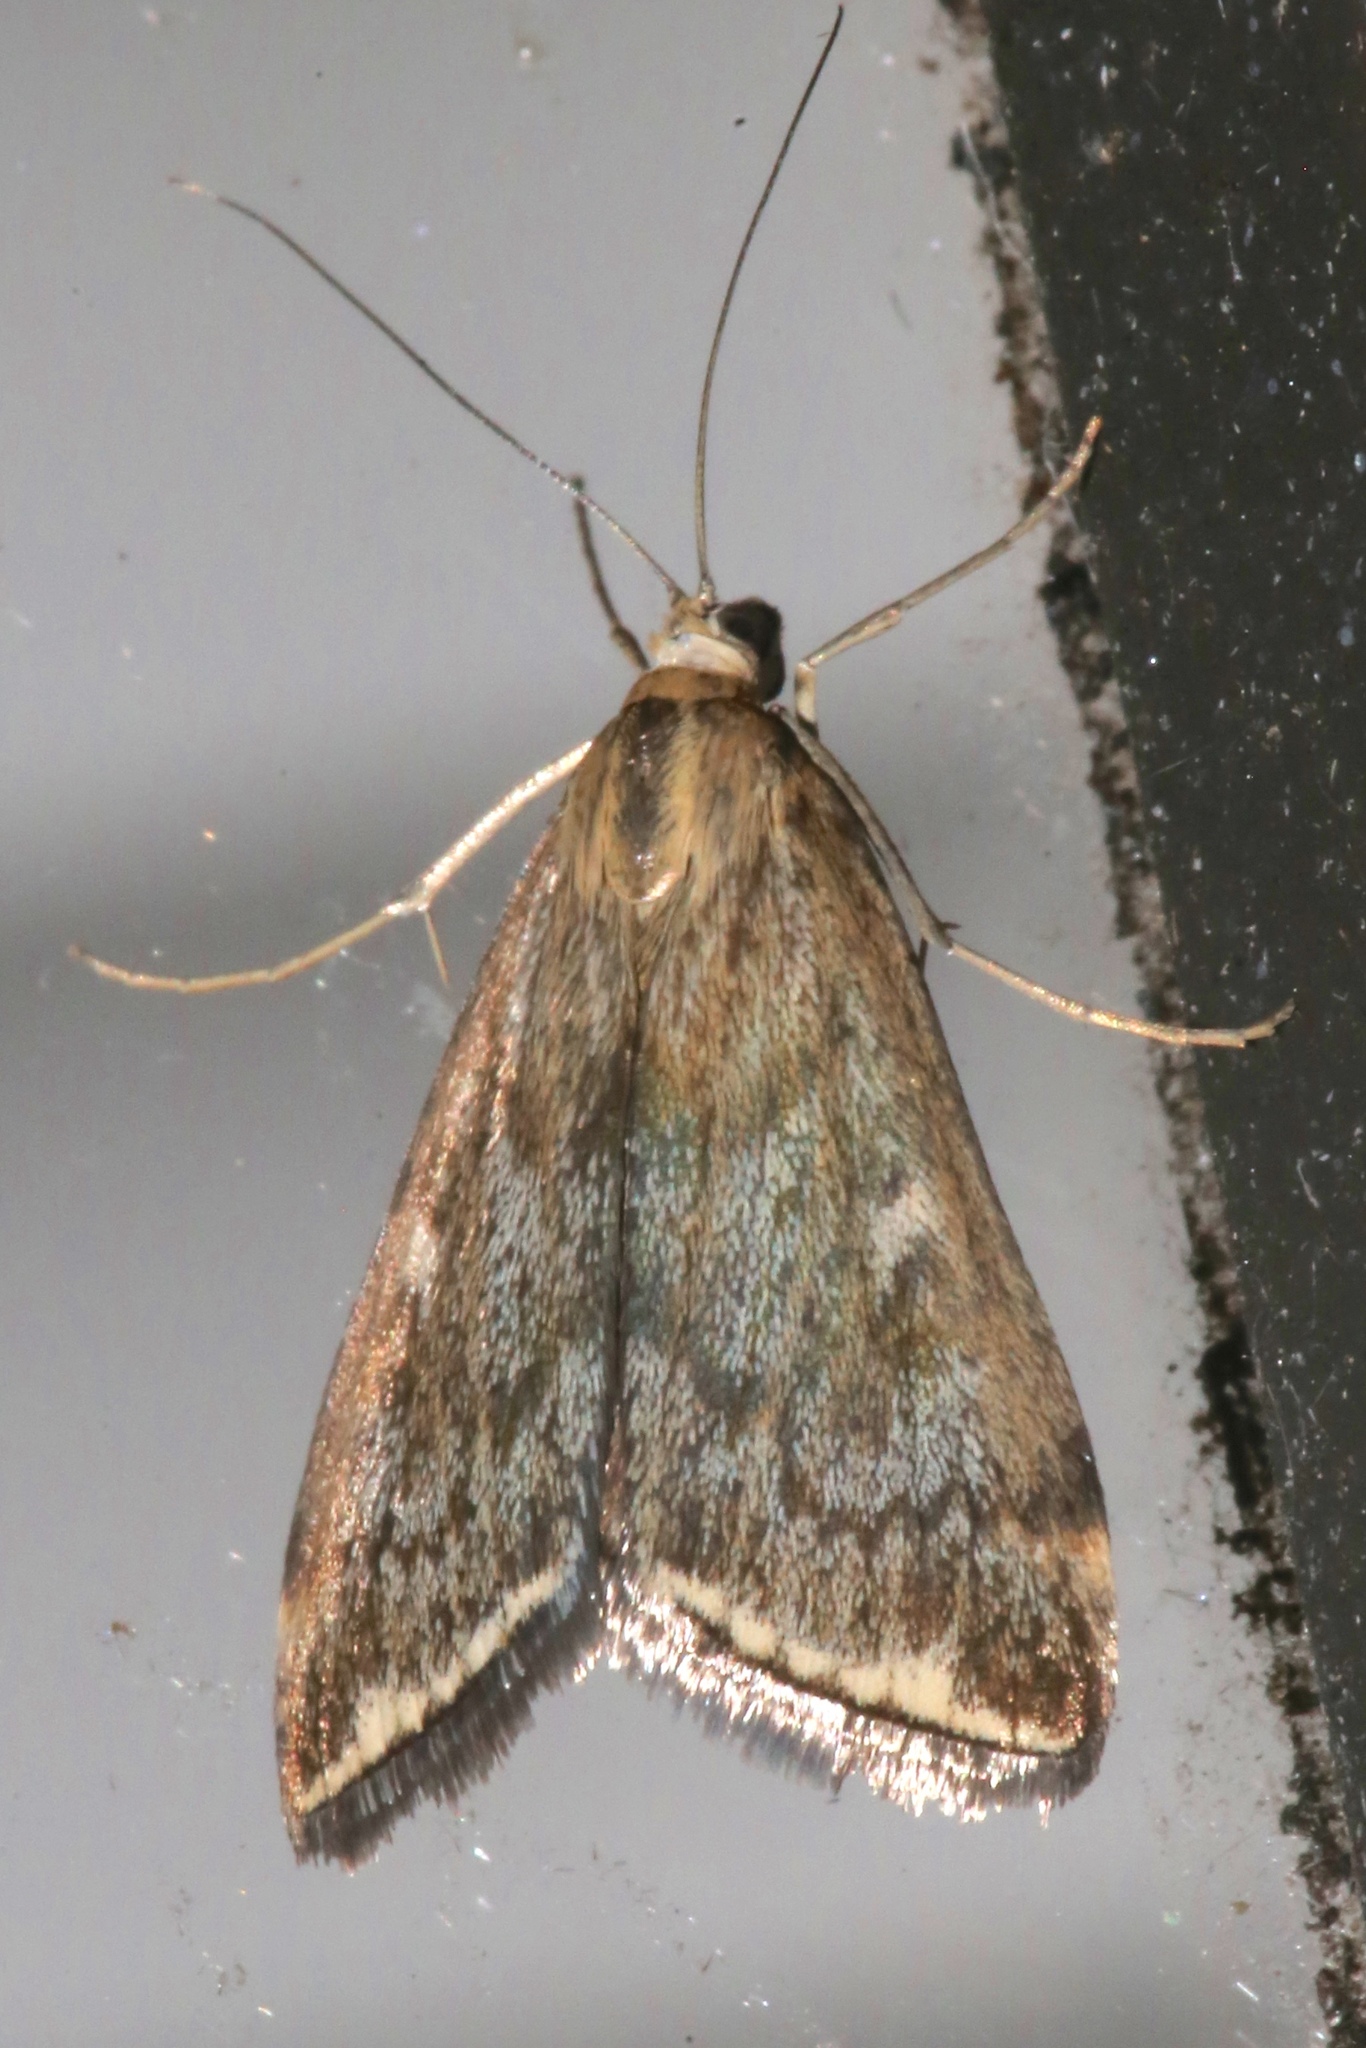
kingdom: Animalia
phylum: Arthropoda
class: Insecta
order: Lepidoptera
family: Crambidae
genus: Loxostege
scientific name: Loxostege
